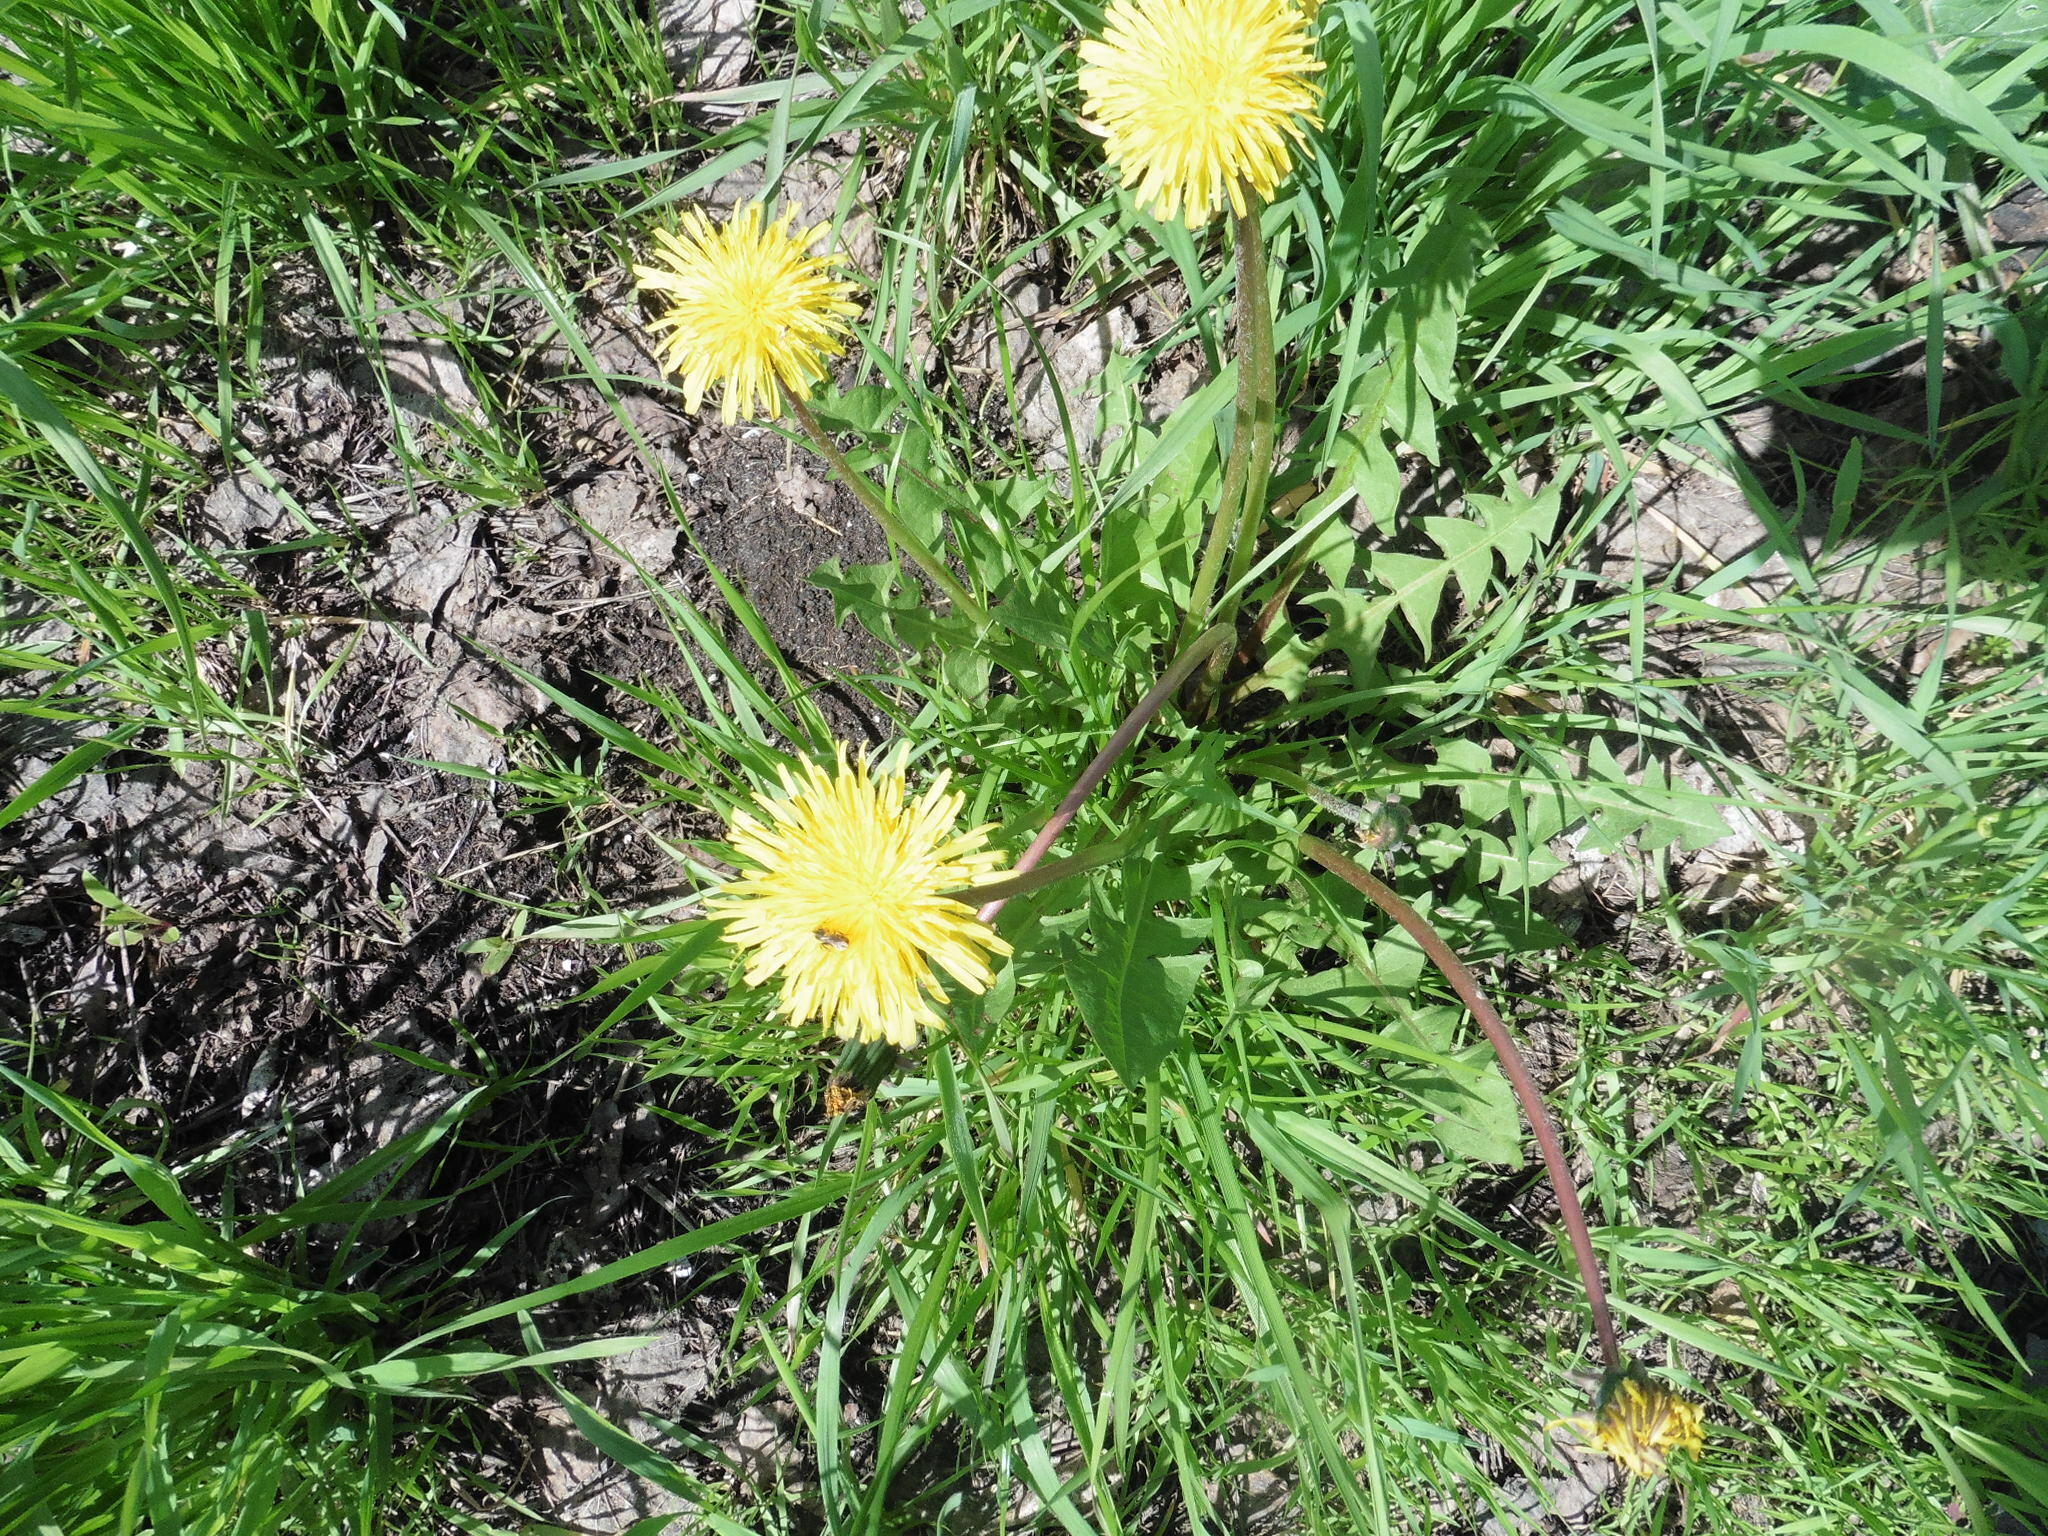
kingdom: Plantae
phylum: Tracheophyta
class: Magnoliopsida
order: Asterales
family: Asteraceae
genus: Taraxacum
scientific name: Taraxacum officinale
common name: Common dandelion
